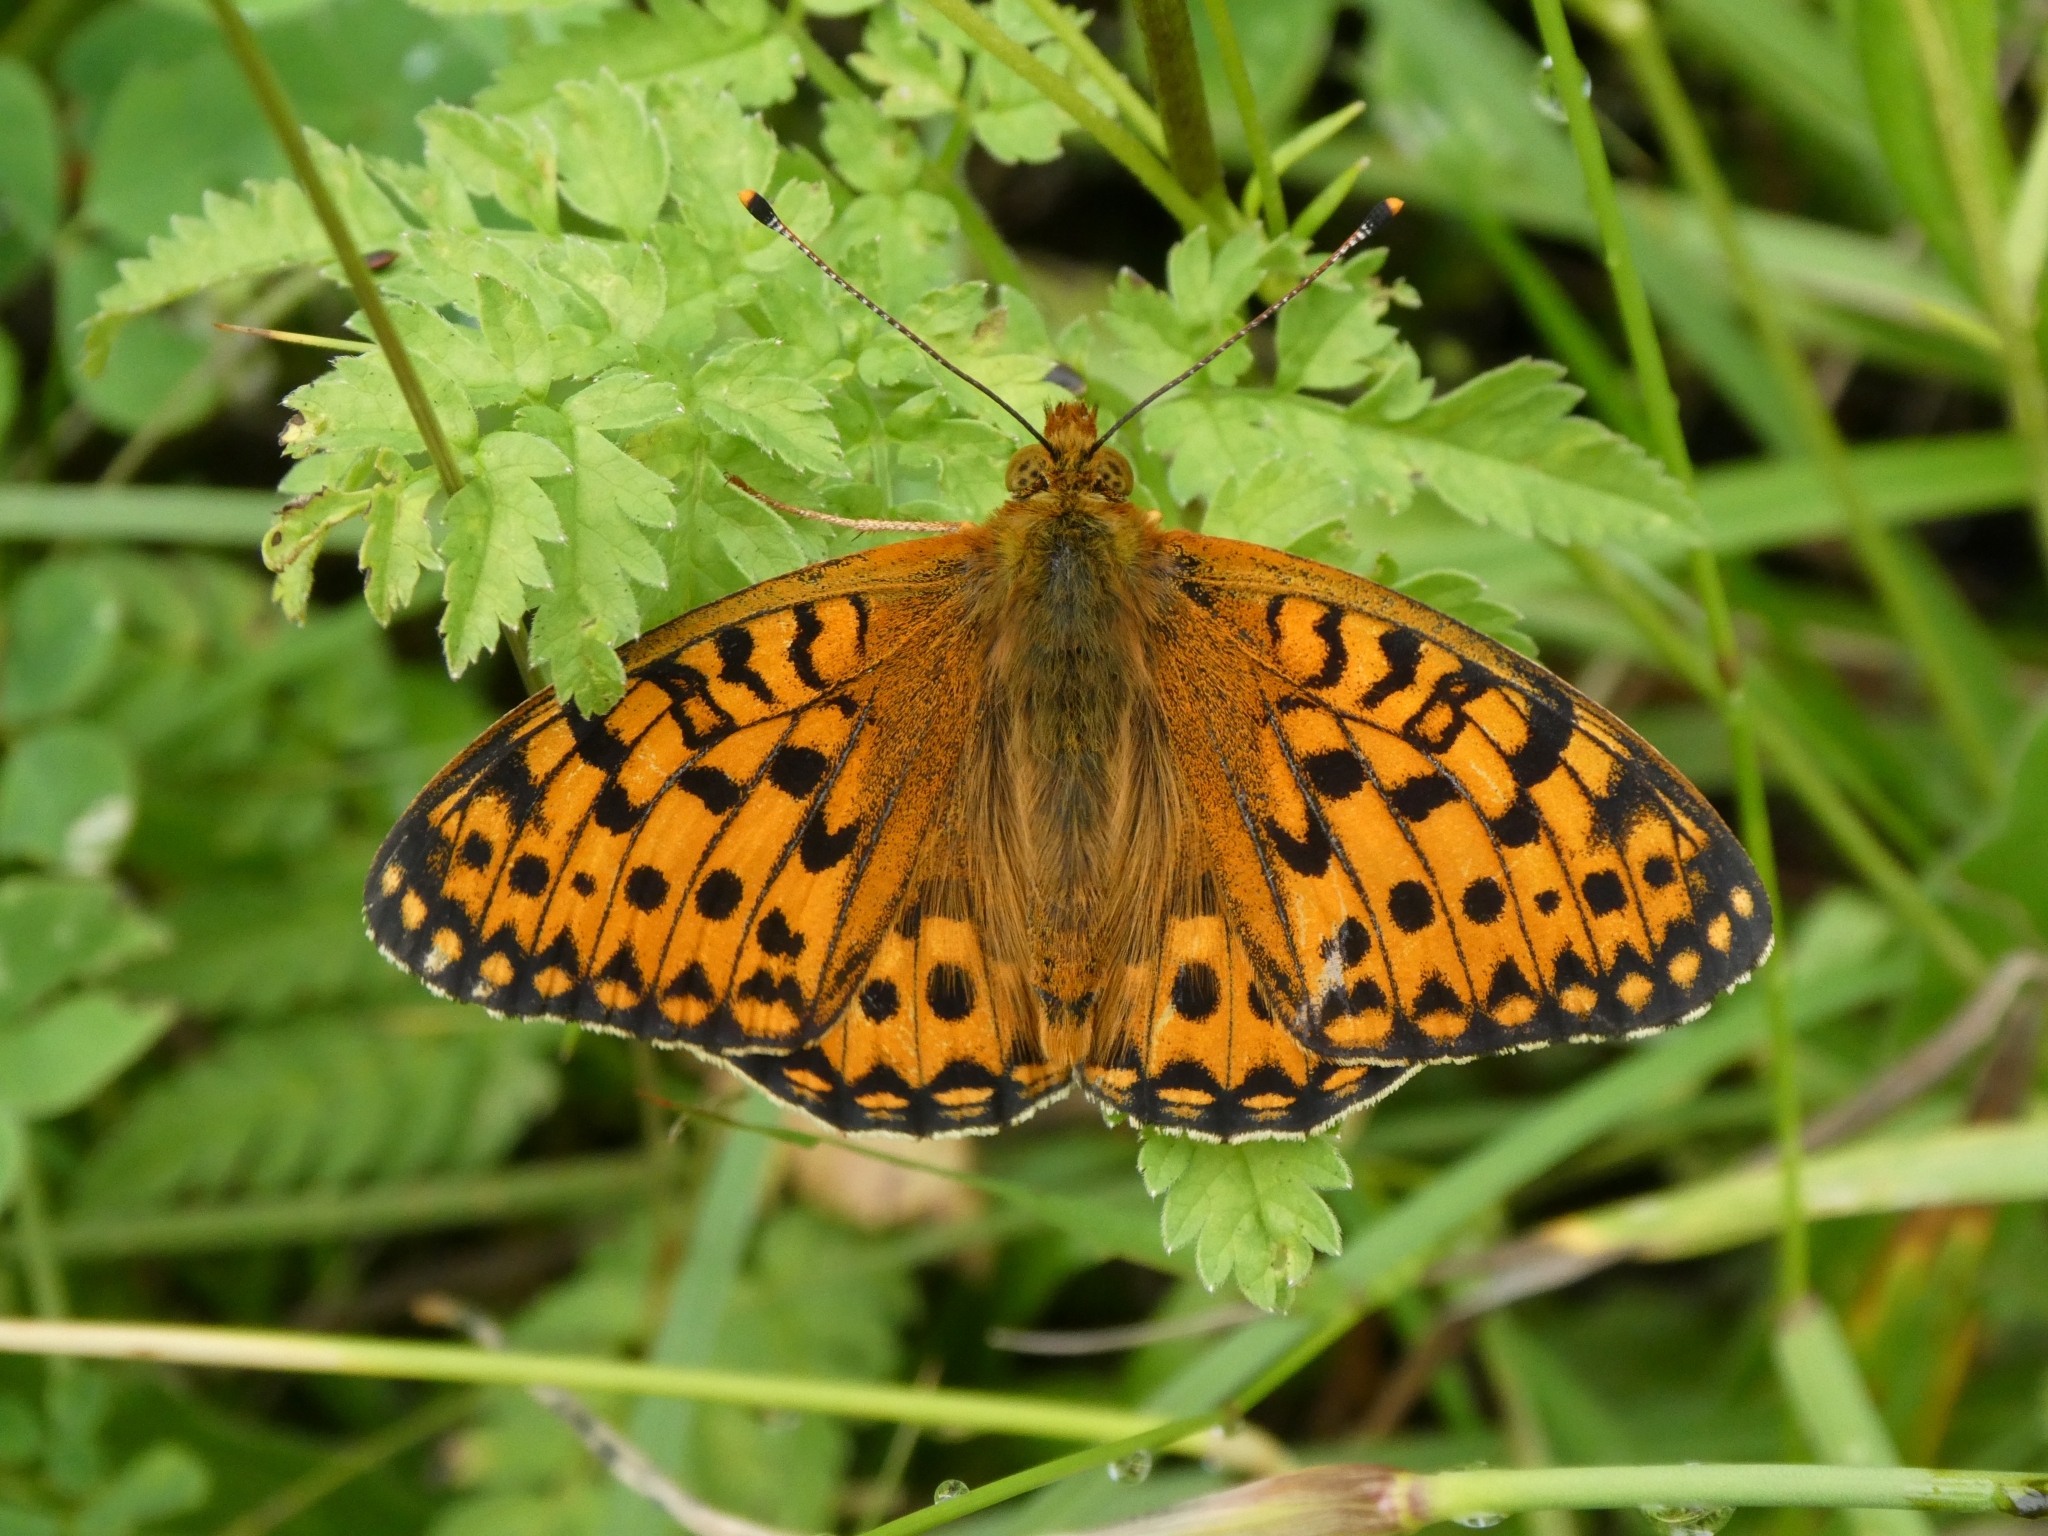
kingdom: Animalia
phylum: Arthropoda
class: Insecta
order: Lepidoptera
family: Nymphalidae
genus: Speyeria
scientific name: Speyeria aglaja
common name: Dark green fritillary
